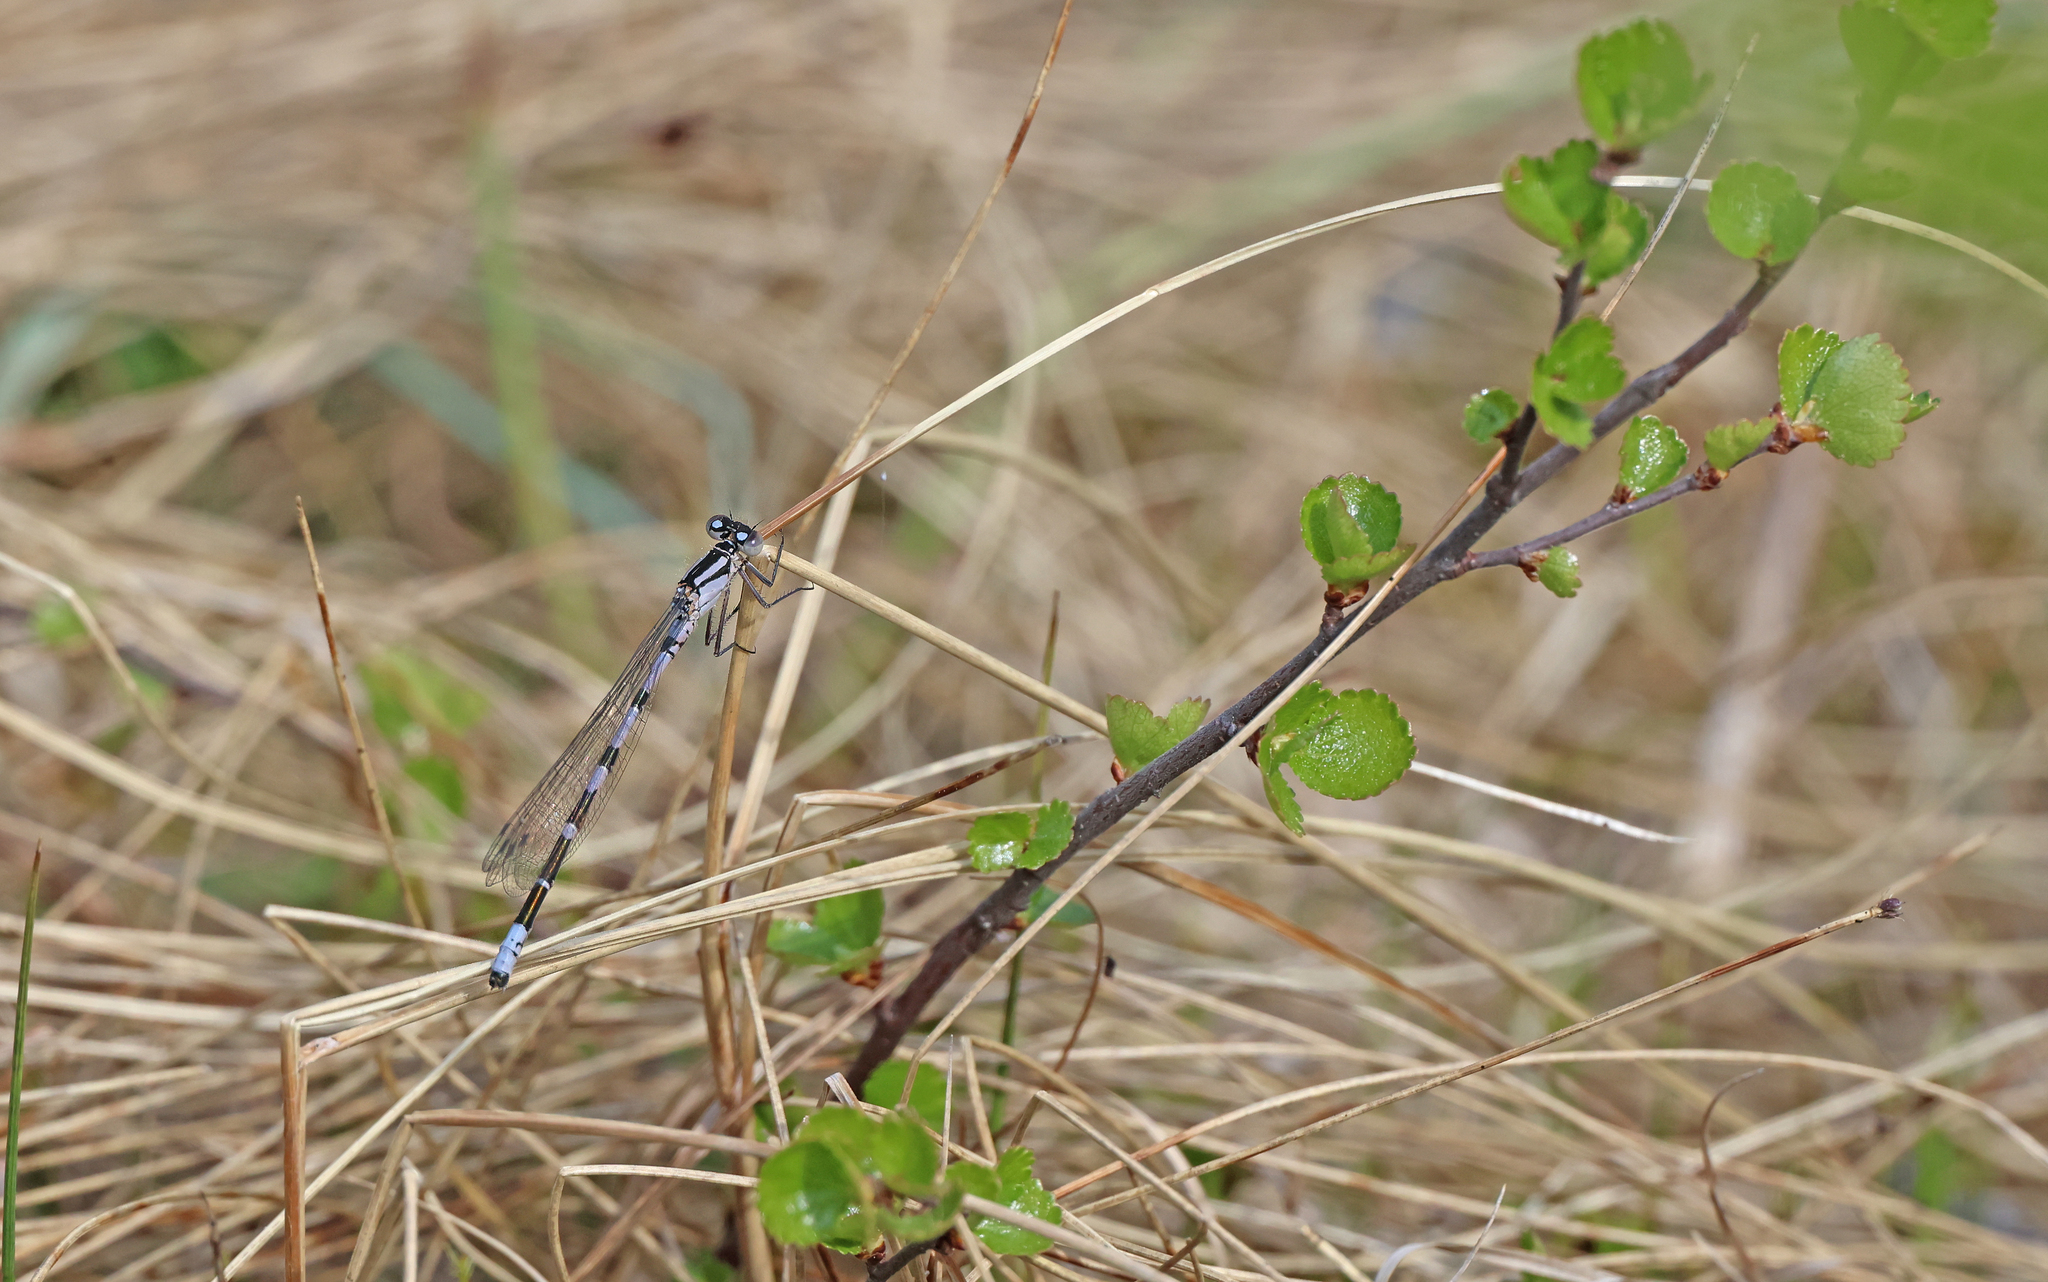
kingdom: Animalia
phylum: Arthropoda
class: Insecta
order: Odonata
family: Coenagrionidae
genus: Enallagma
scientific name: Enallagma cyathigerum
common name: Common blue damselfly
